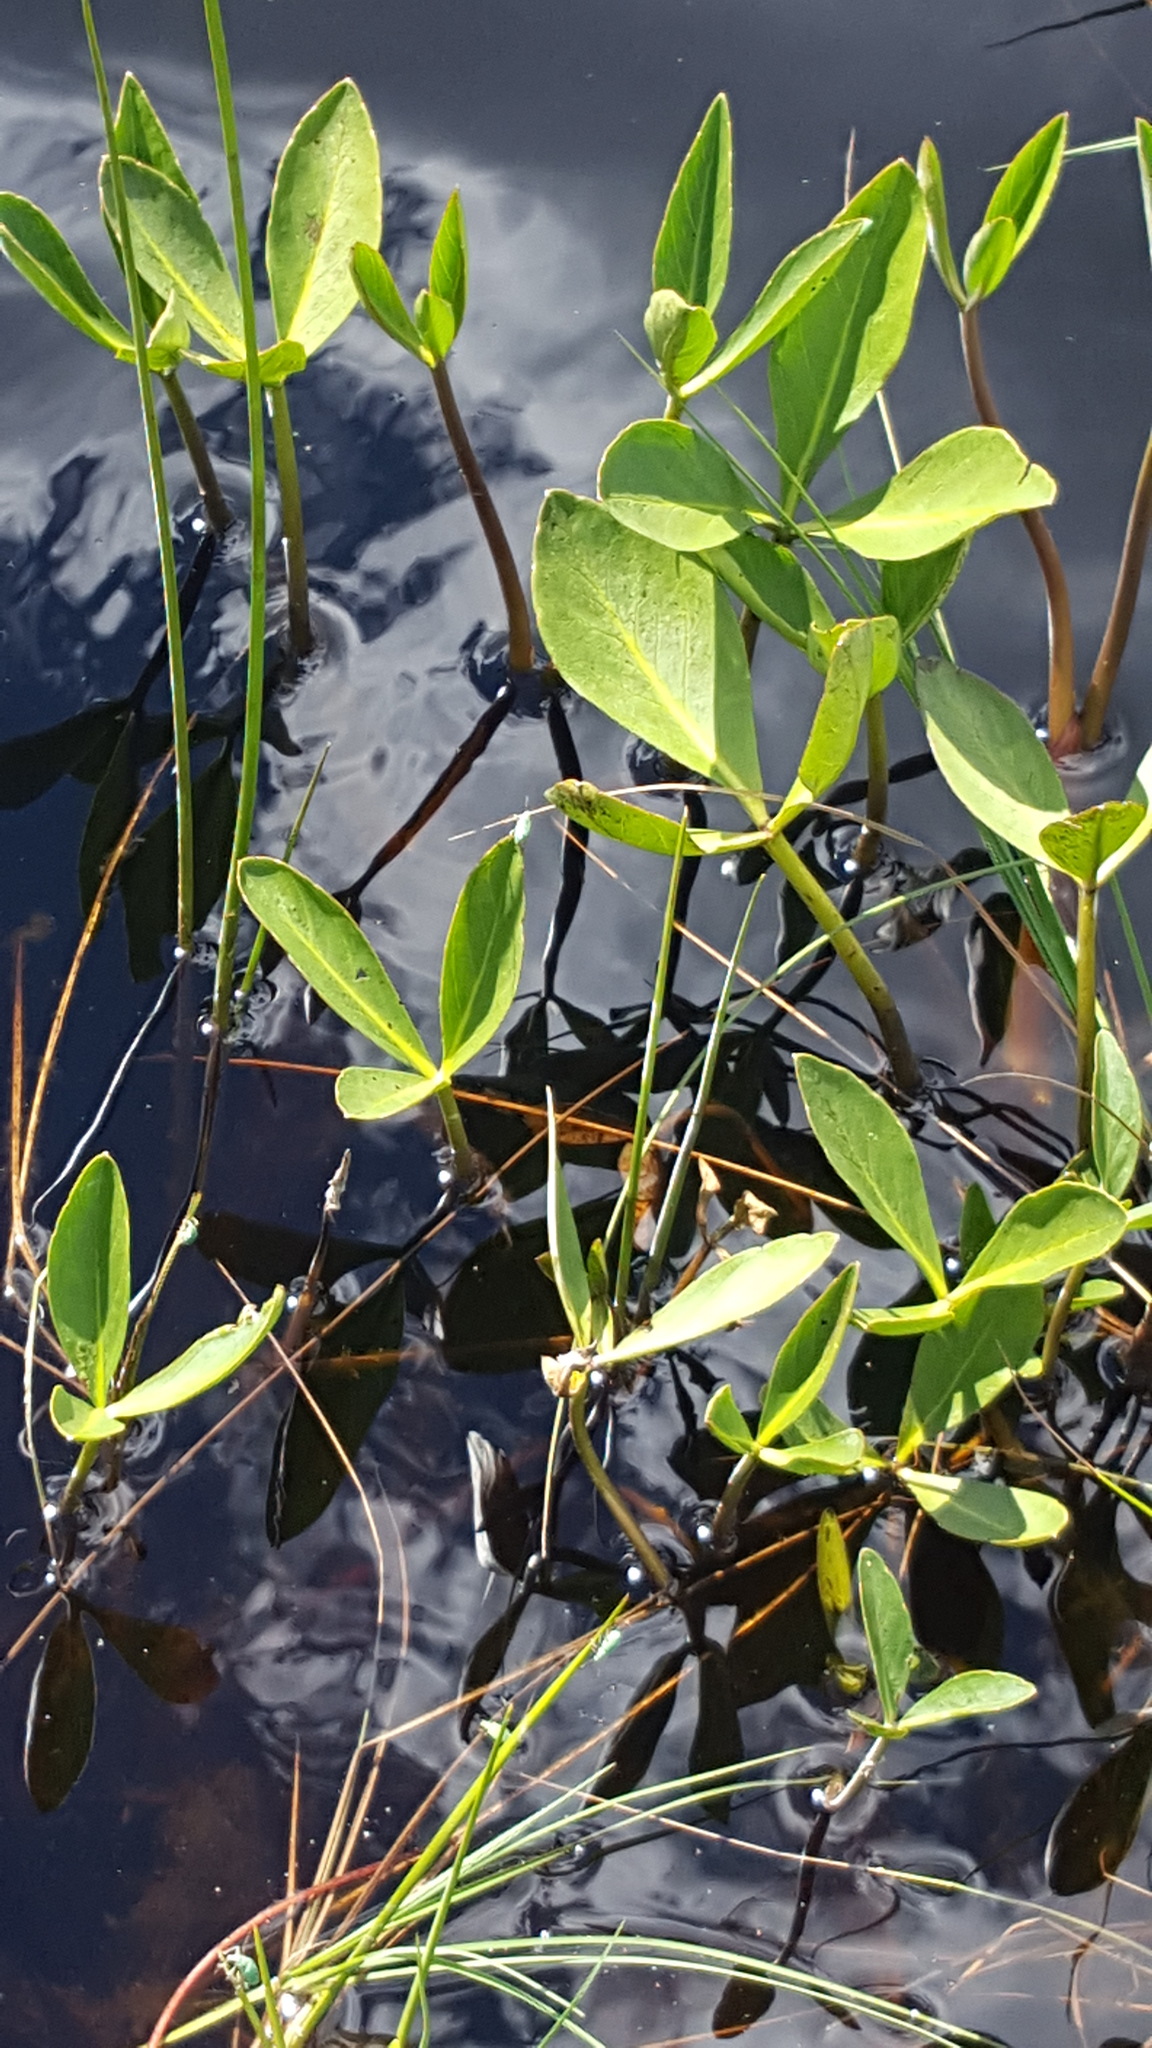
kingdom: Plantae
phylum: Tracheophyta
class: Magnoliopsida
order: Asterales
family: Menyanthaceae
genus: Menyanthes
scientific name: Menyanthes trifoliata
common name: Bogbean
